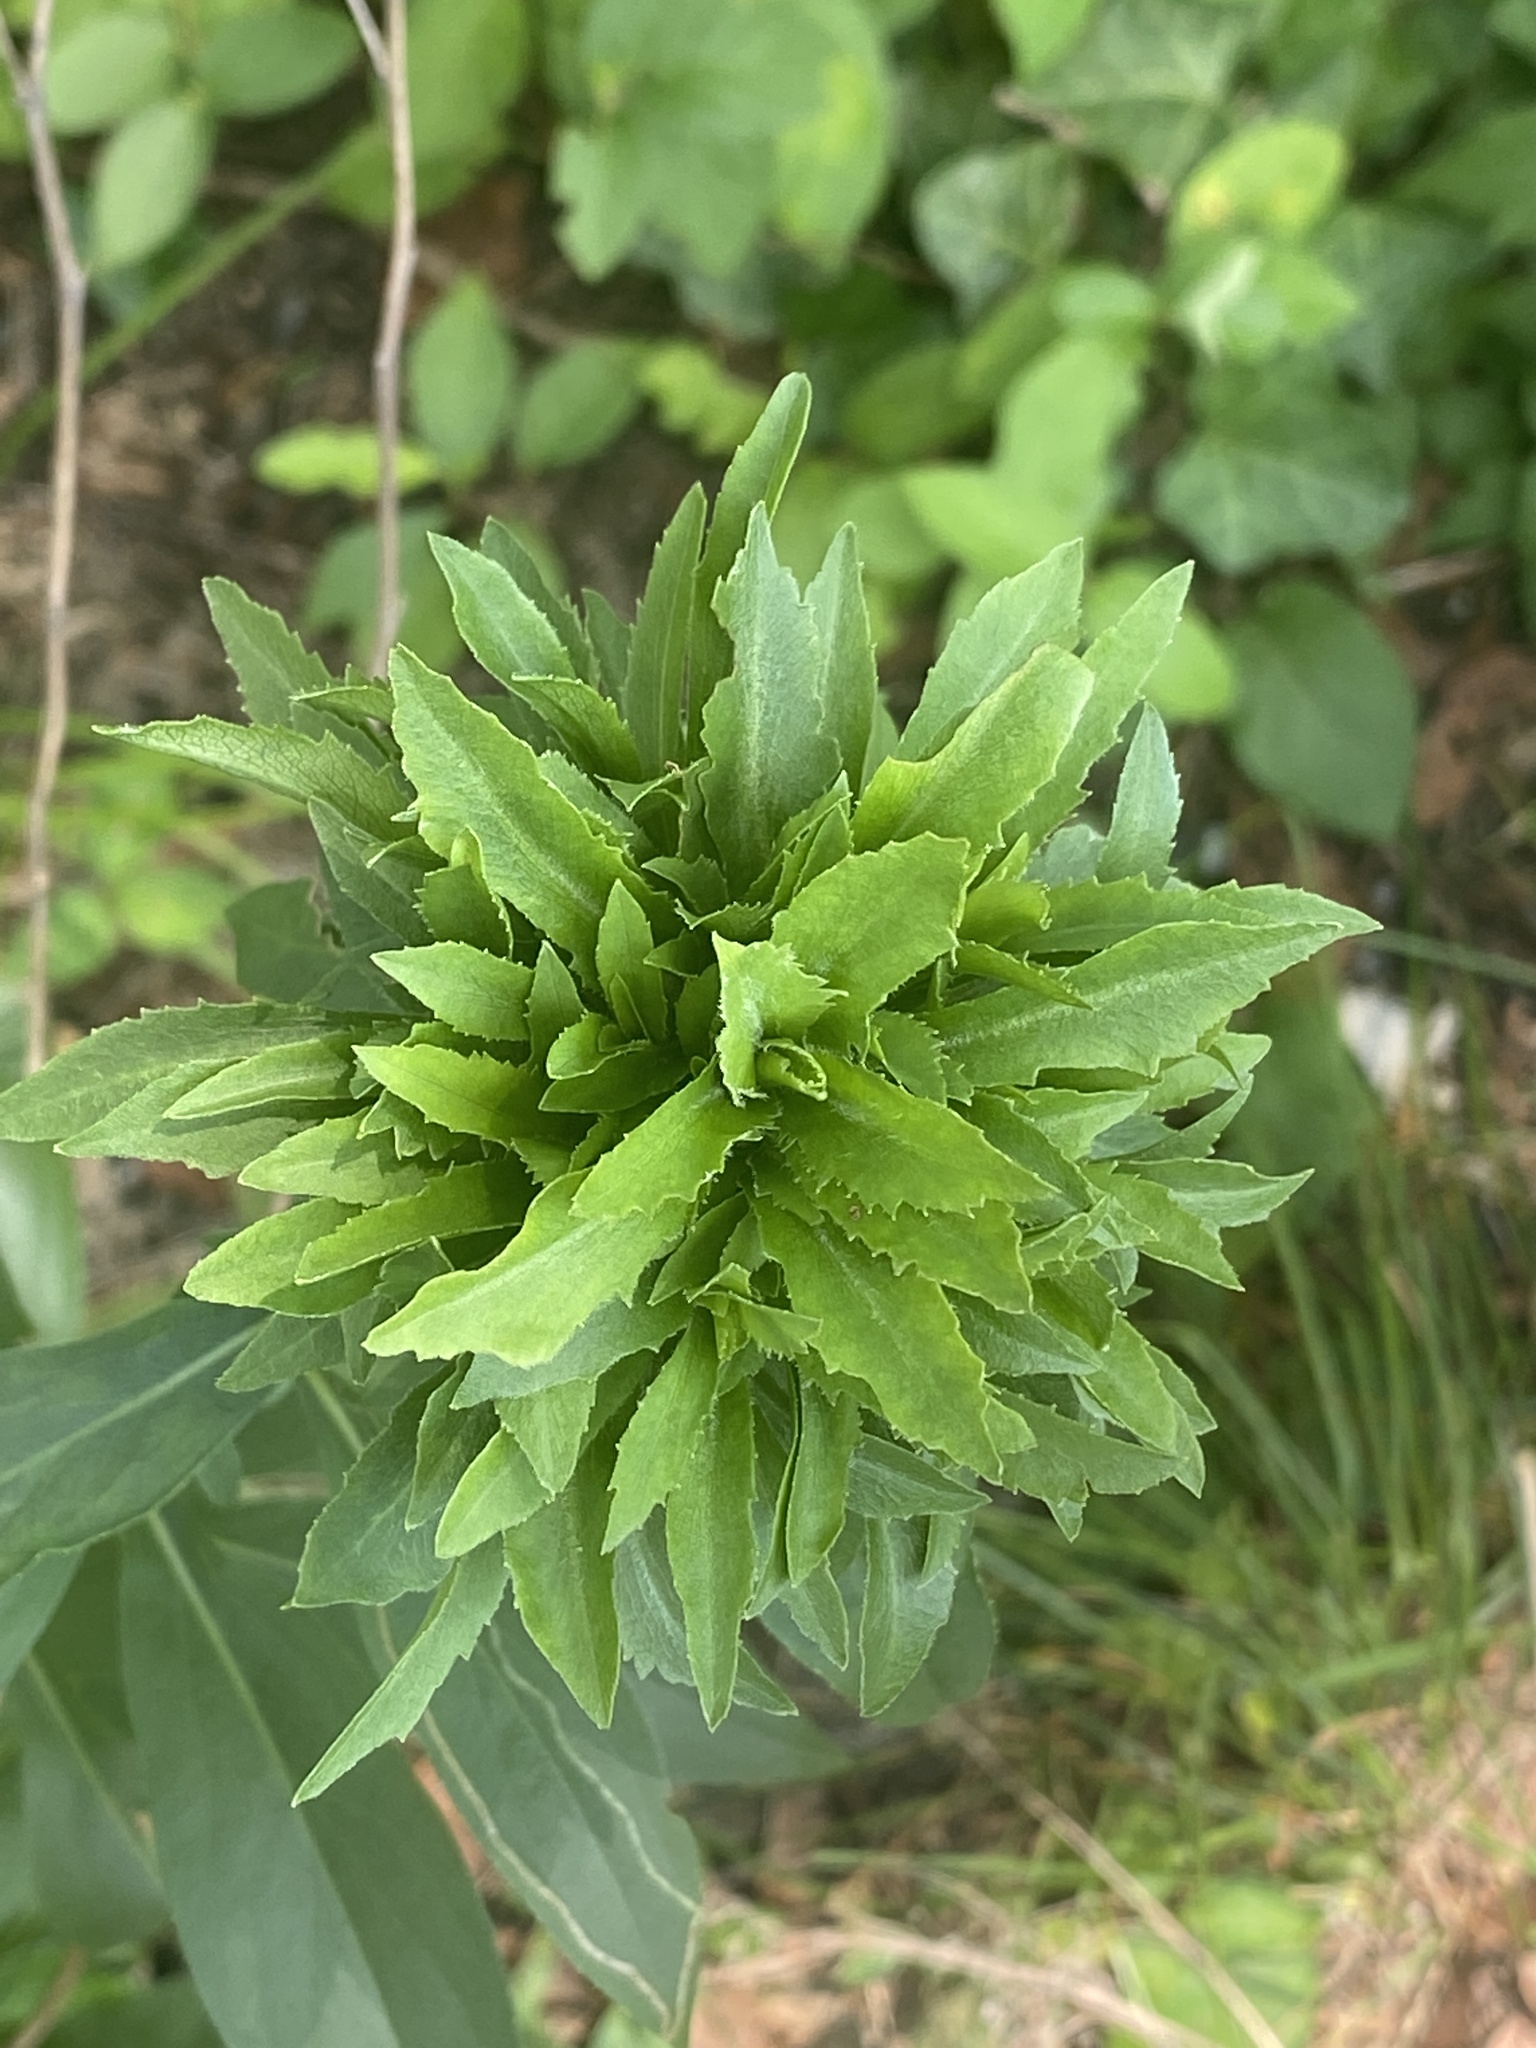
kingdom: Animalia
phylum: Arthropoda
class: Insecta
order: Diptera
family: Cecidomyiidae
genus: Asphondylia
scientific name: Asphondylia monacha
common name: Nun midge
